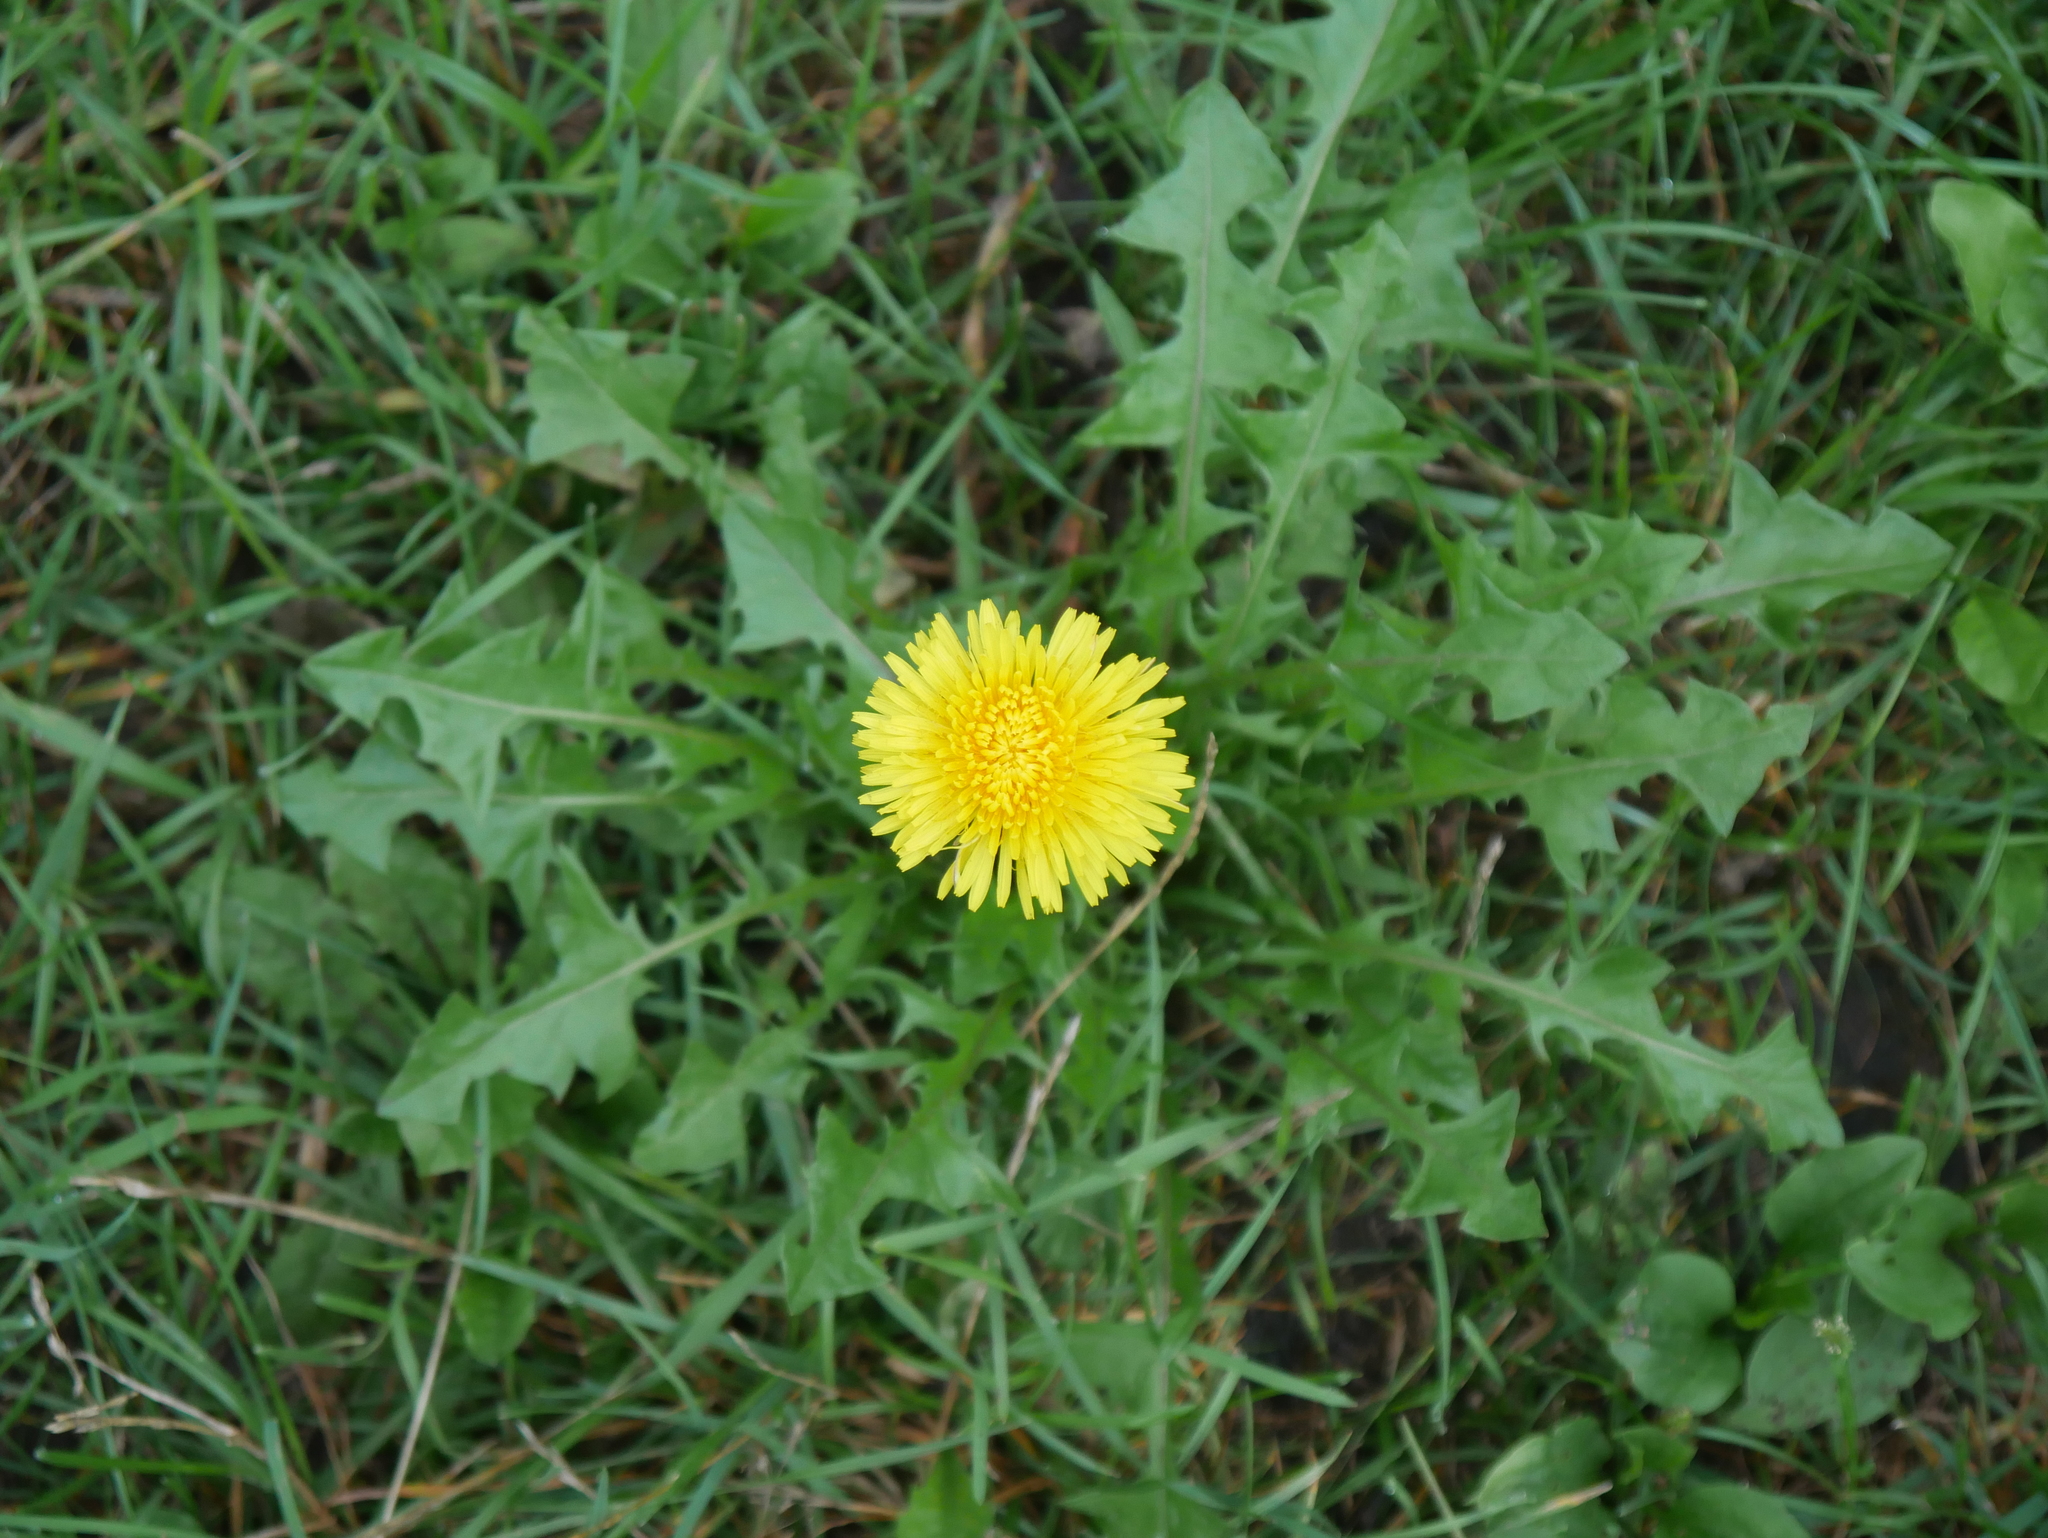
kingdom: Plantae
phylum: Tracheophyta
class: Magnoliopsida
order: Asterales
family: Asteraceae
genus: Taraxacum
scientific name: Taraxacum officinale
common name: Common dandelion
